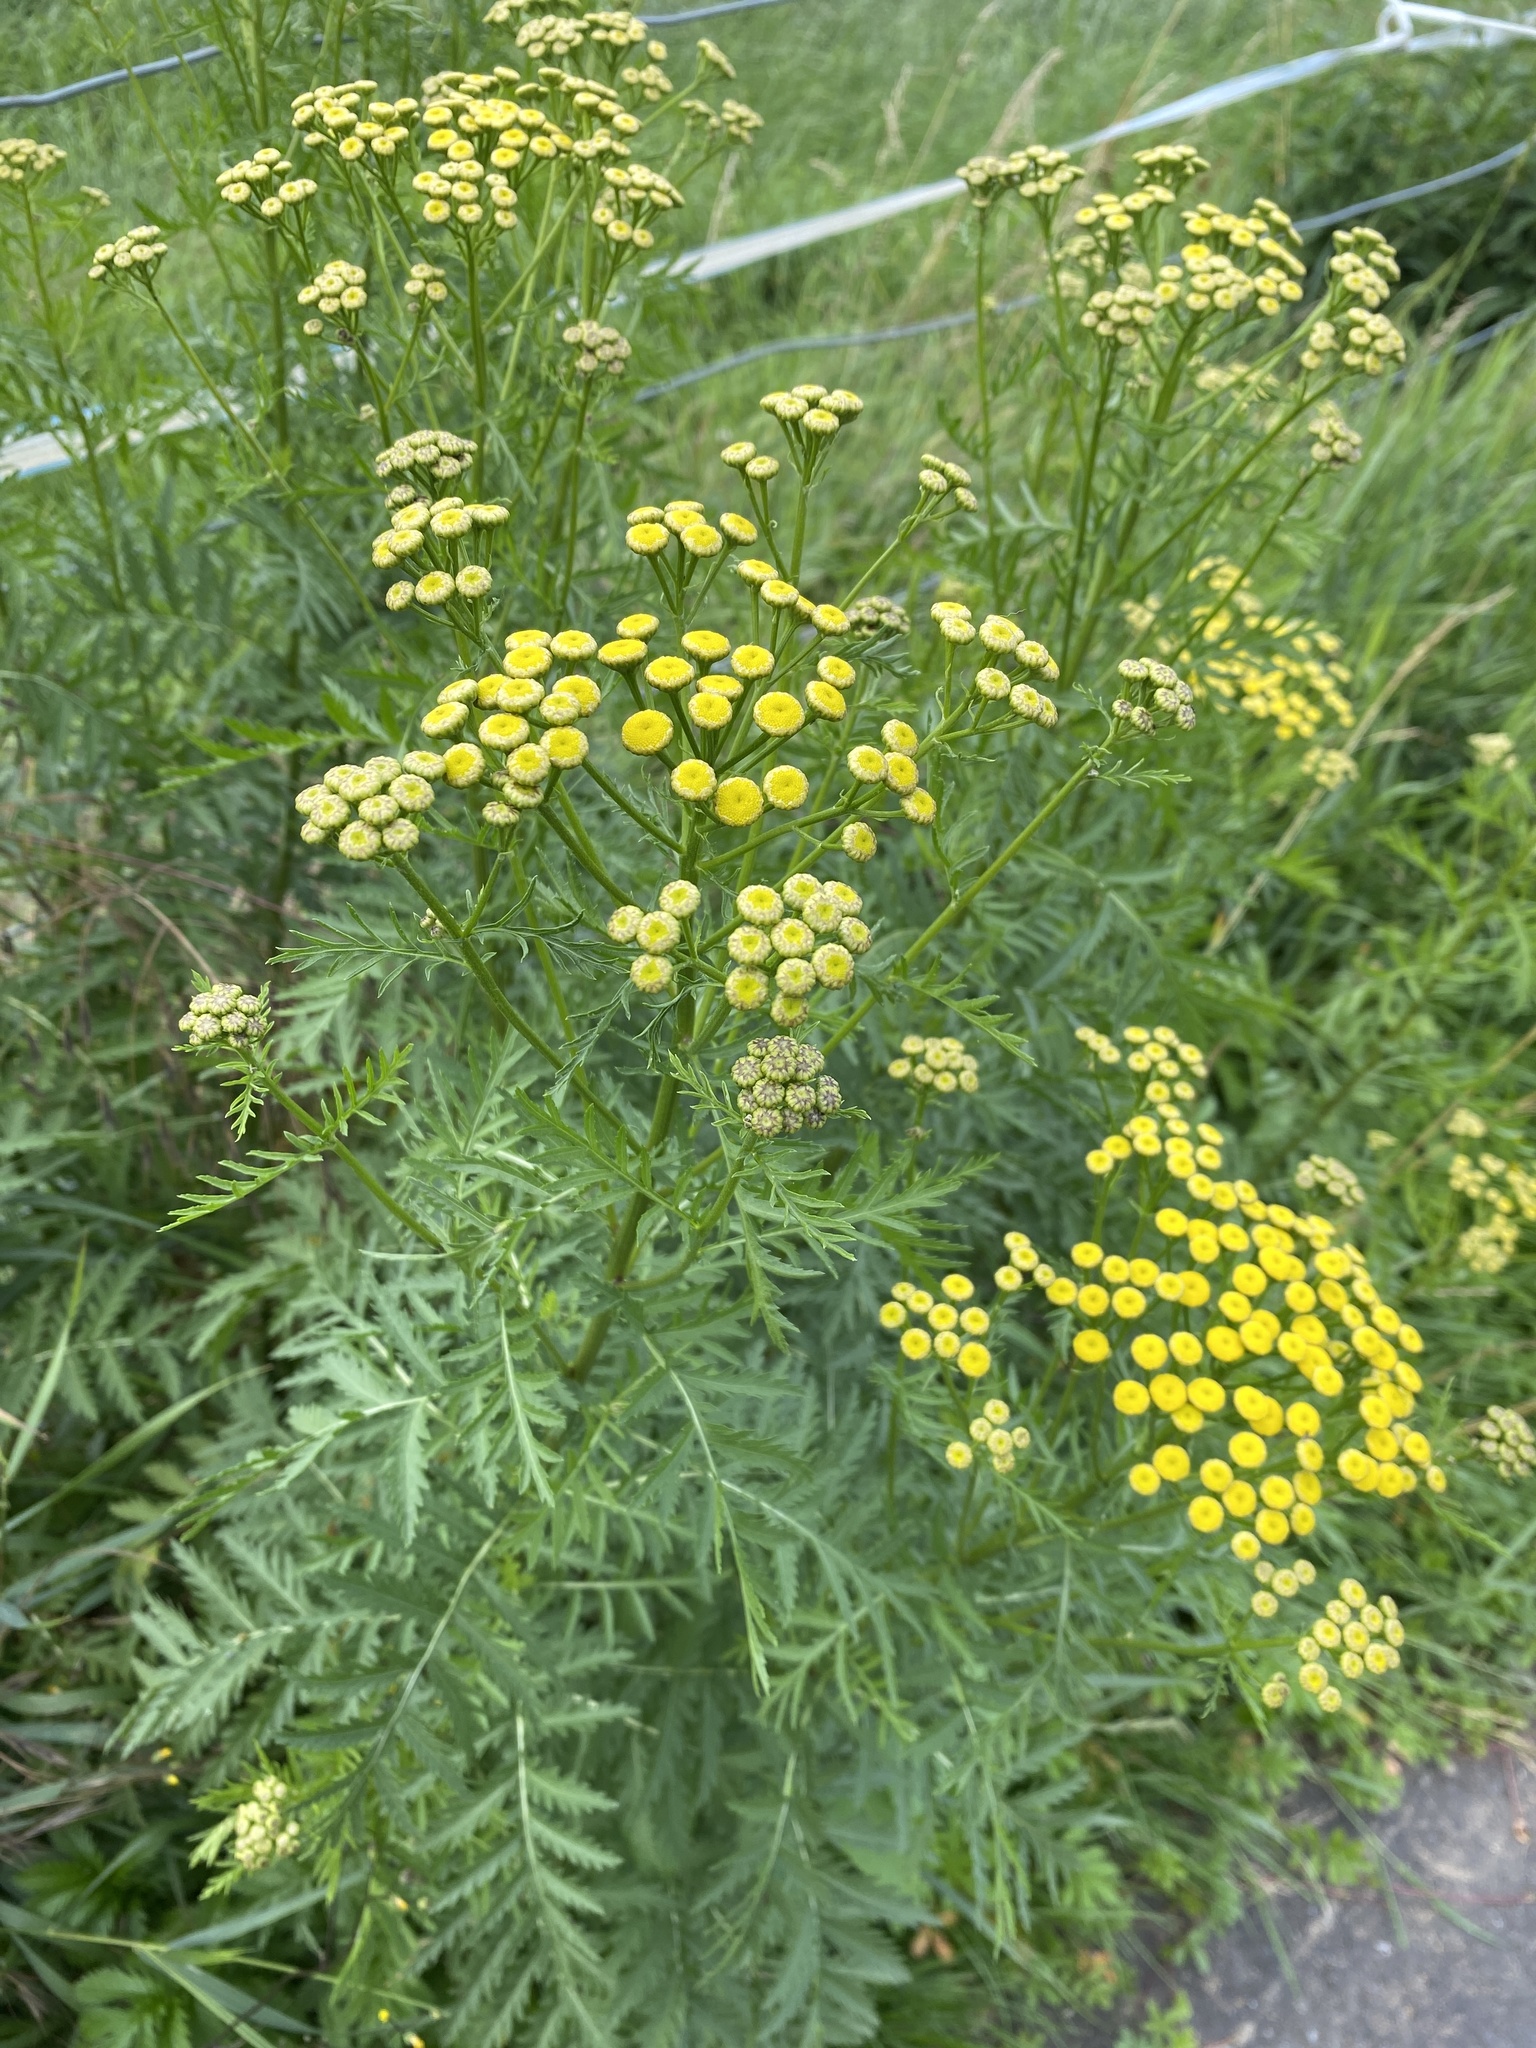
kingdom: Plantae
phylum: Tracheophyta
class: Magnoliopsida
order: Asterales
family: Asteraceae
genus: Tanacetum
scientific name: Tanacetum vulgare
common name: Common tansy
